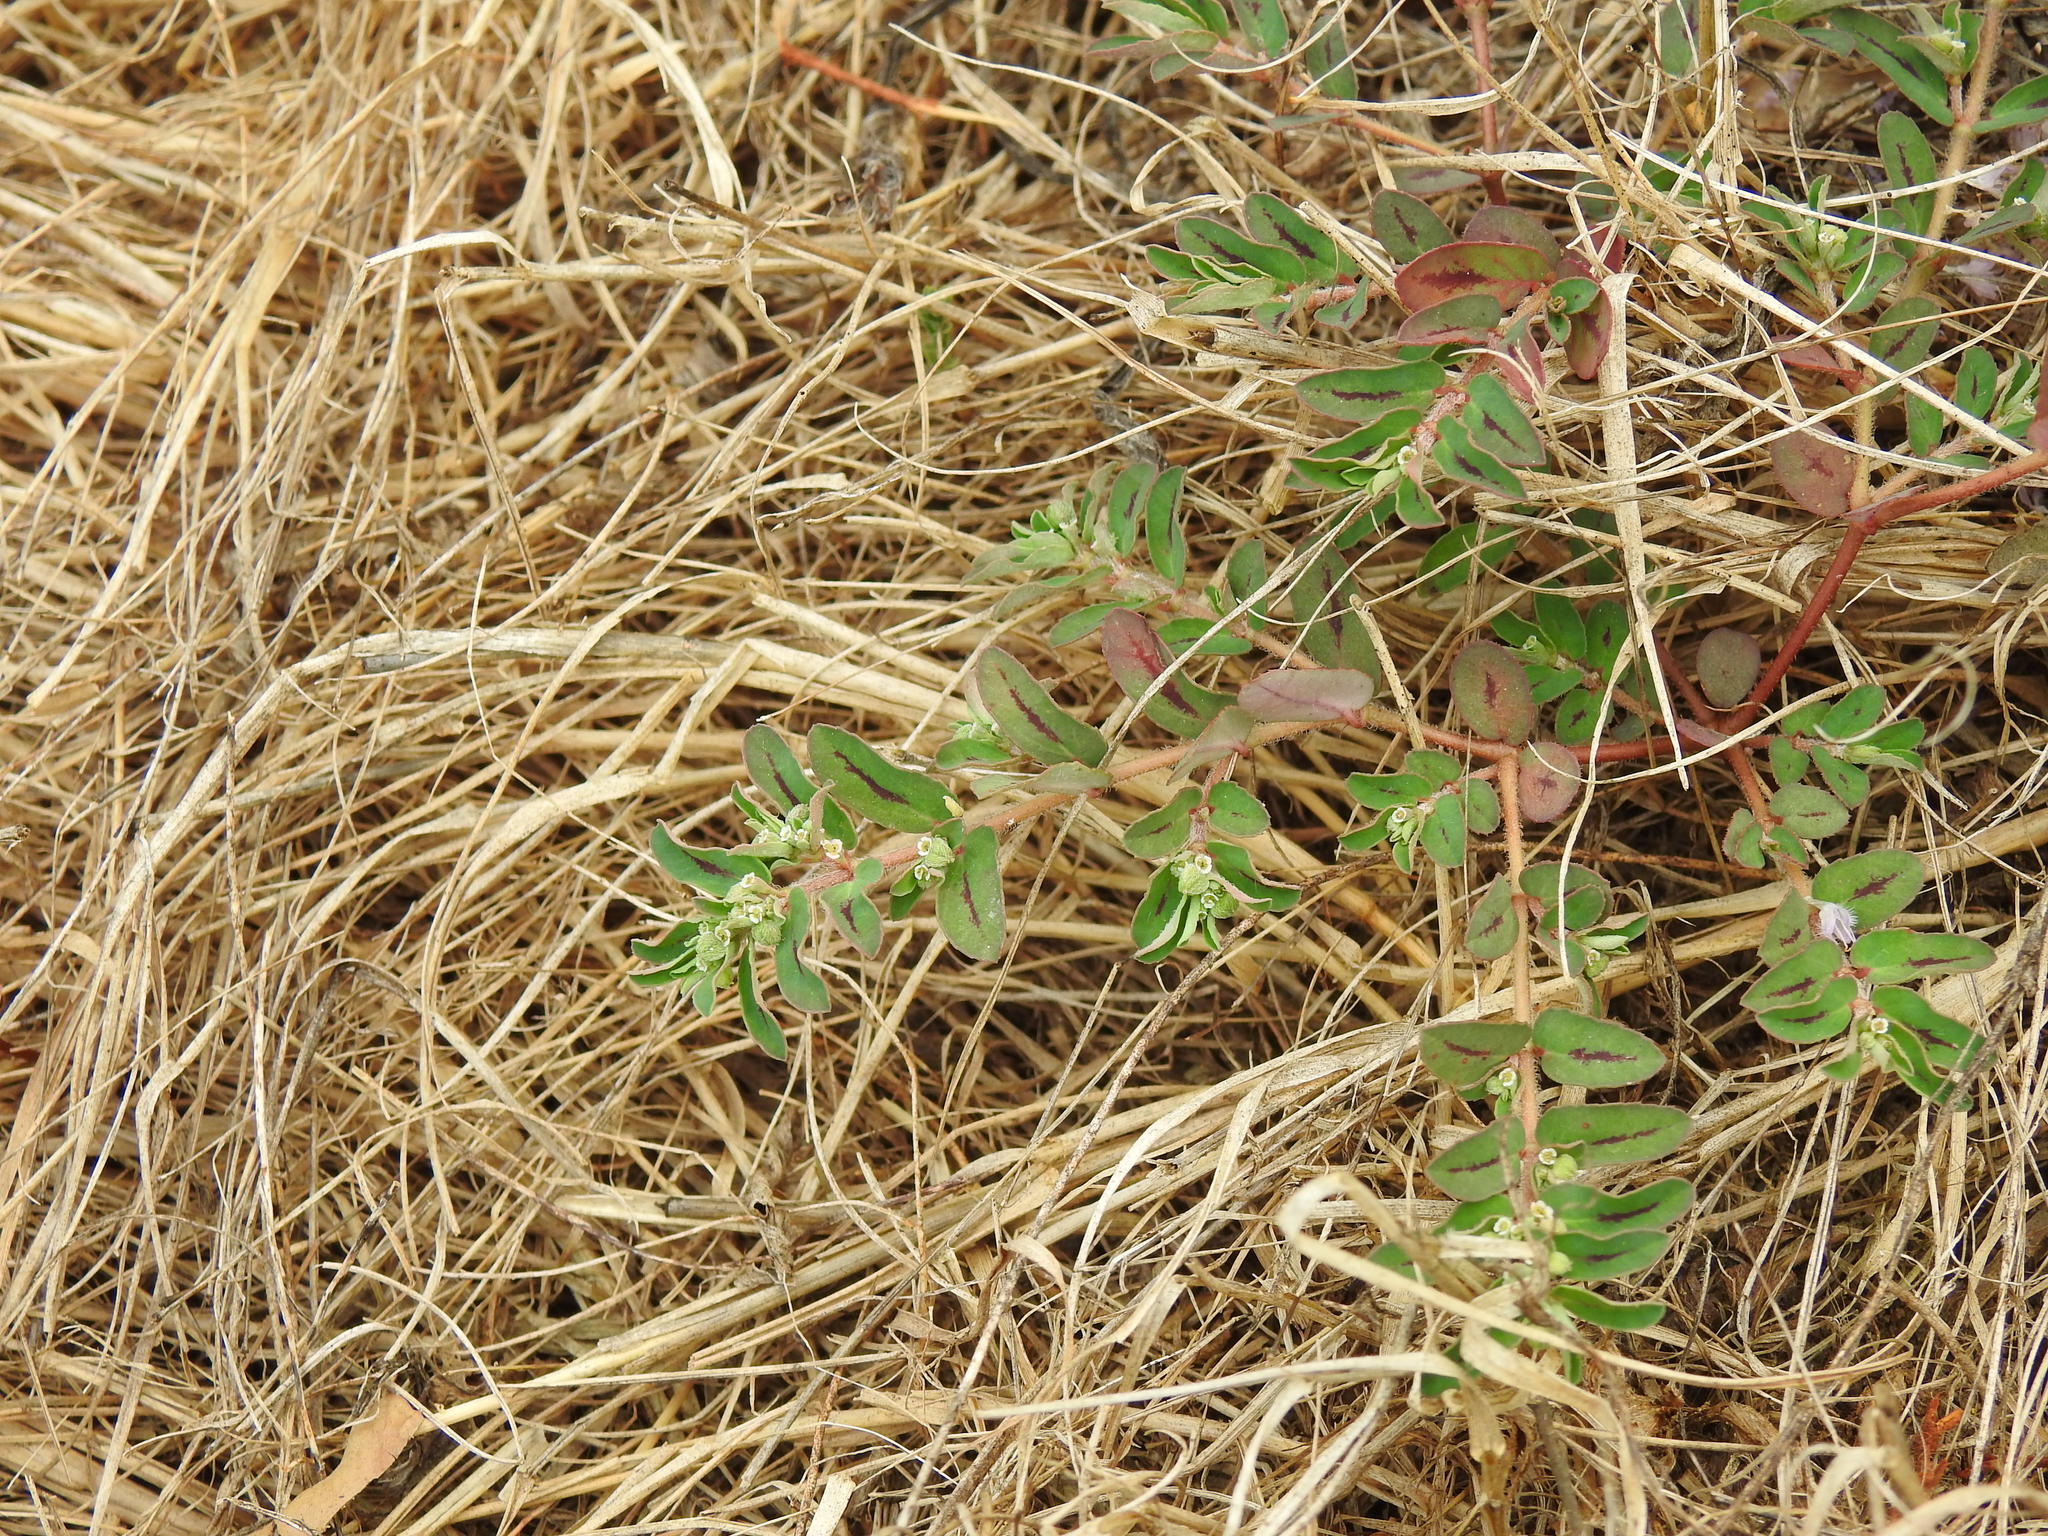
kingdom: Plantae
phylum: Tracheophyta
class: Magnoliopsida
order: Malpighiales
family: Euphorbiaceae
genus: Euphorbia
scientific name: Euphorbia maculata
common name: Spotted spurge
